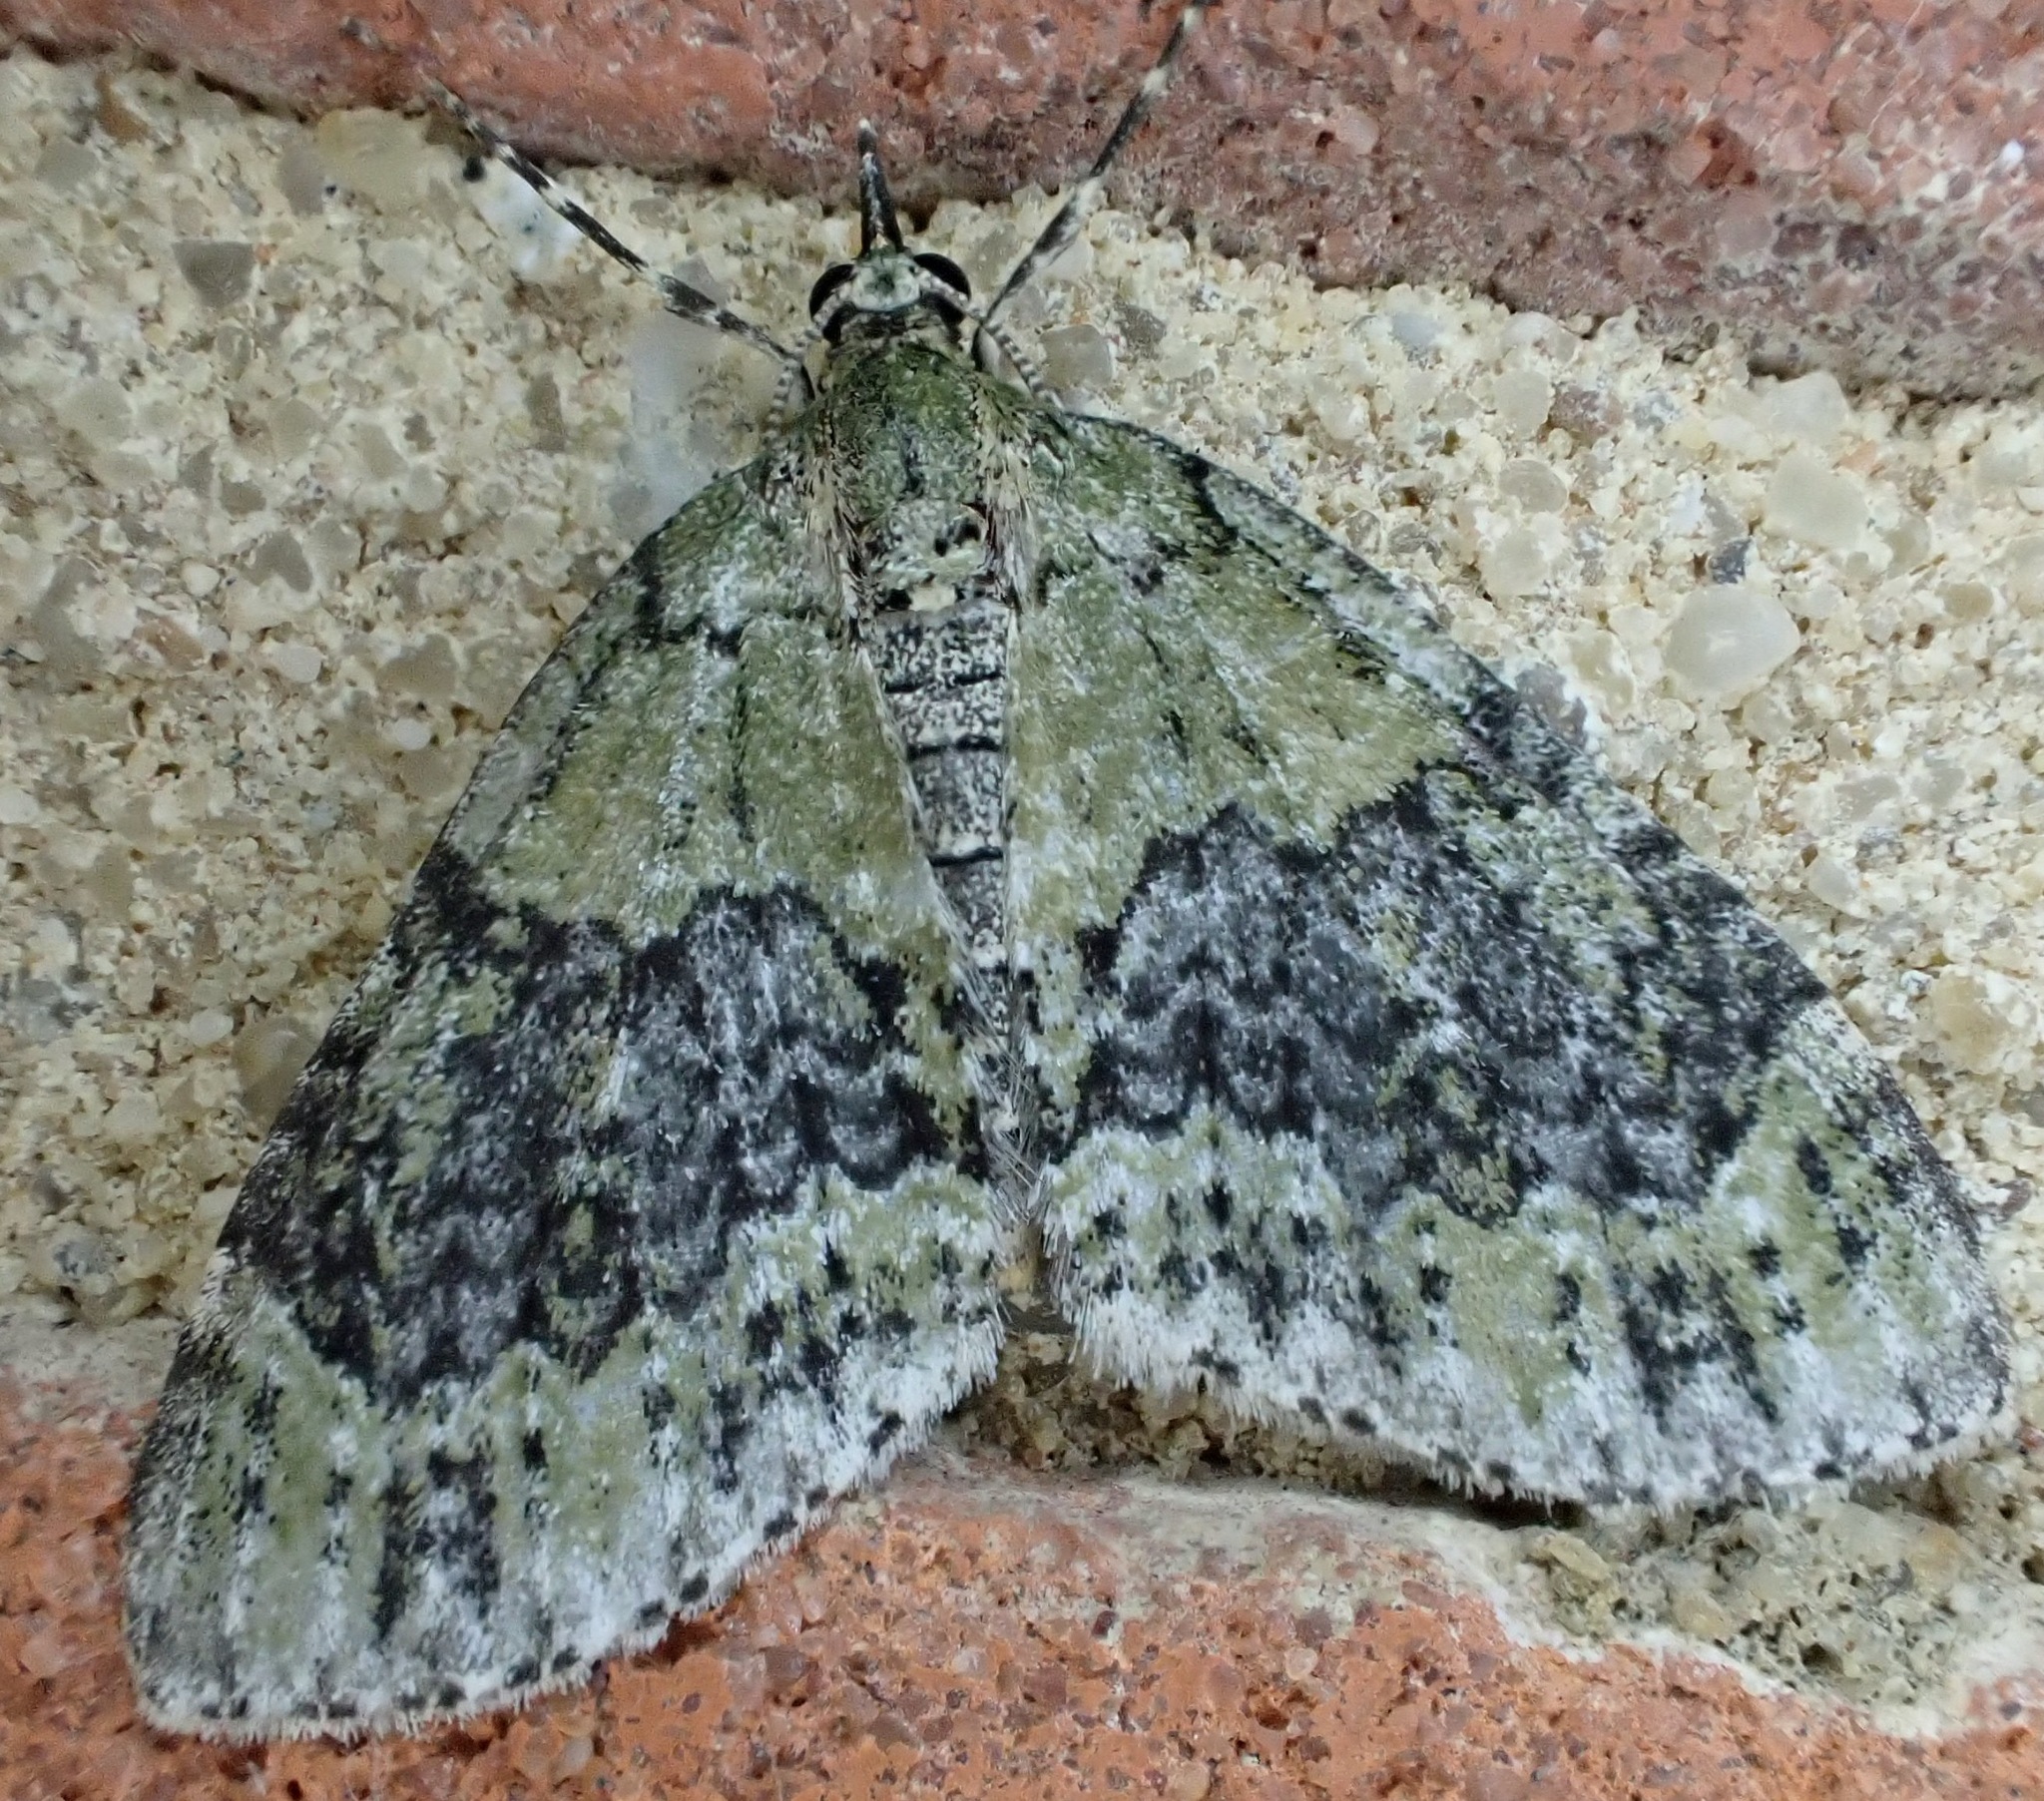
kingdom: Animalia
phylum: Arthropoda
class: Insecta
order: Lepidoptera
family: Geometridae
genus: Acasis
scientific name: Acasis viretata
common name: Yellow-barred brindle
